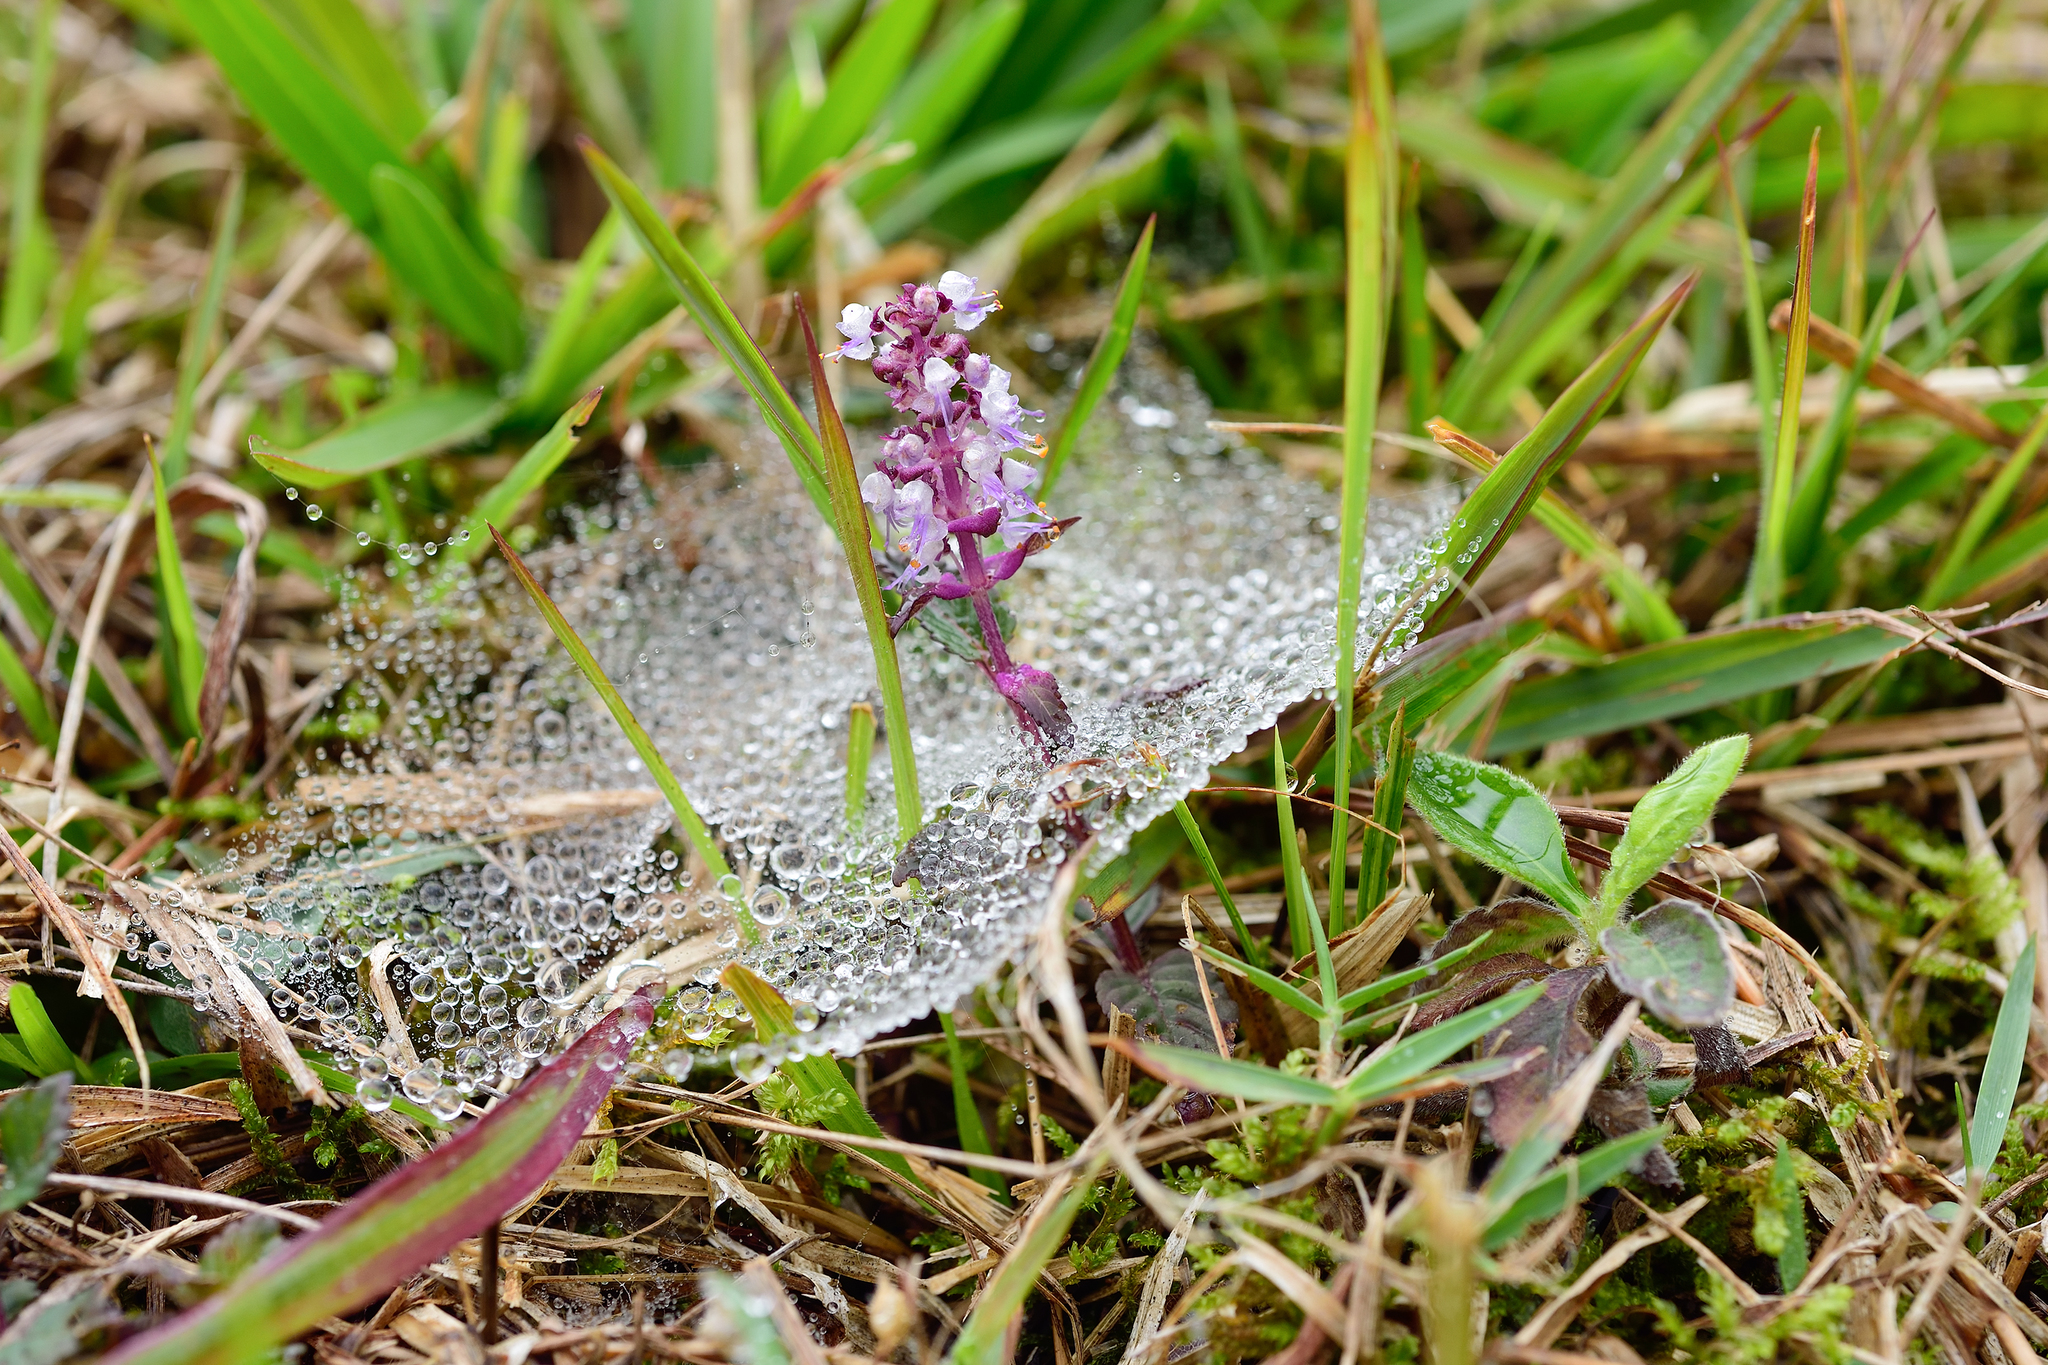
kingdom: Plantae
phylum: Tracheophyta
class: Magnoliopsida
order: Lamiales
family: Lamiaceae
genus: Platostoma
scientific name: Platostoma palustre
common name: Black cincau
